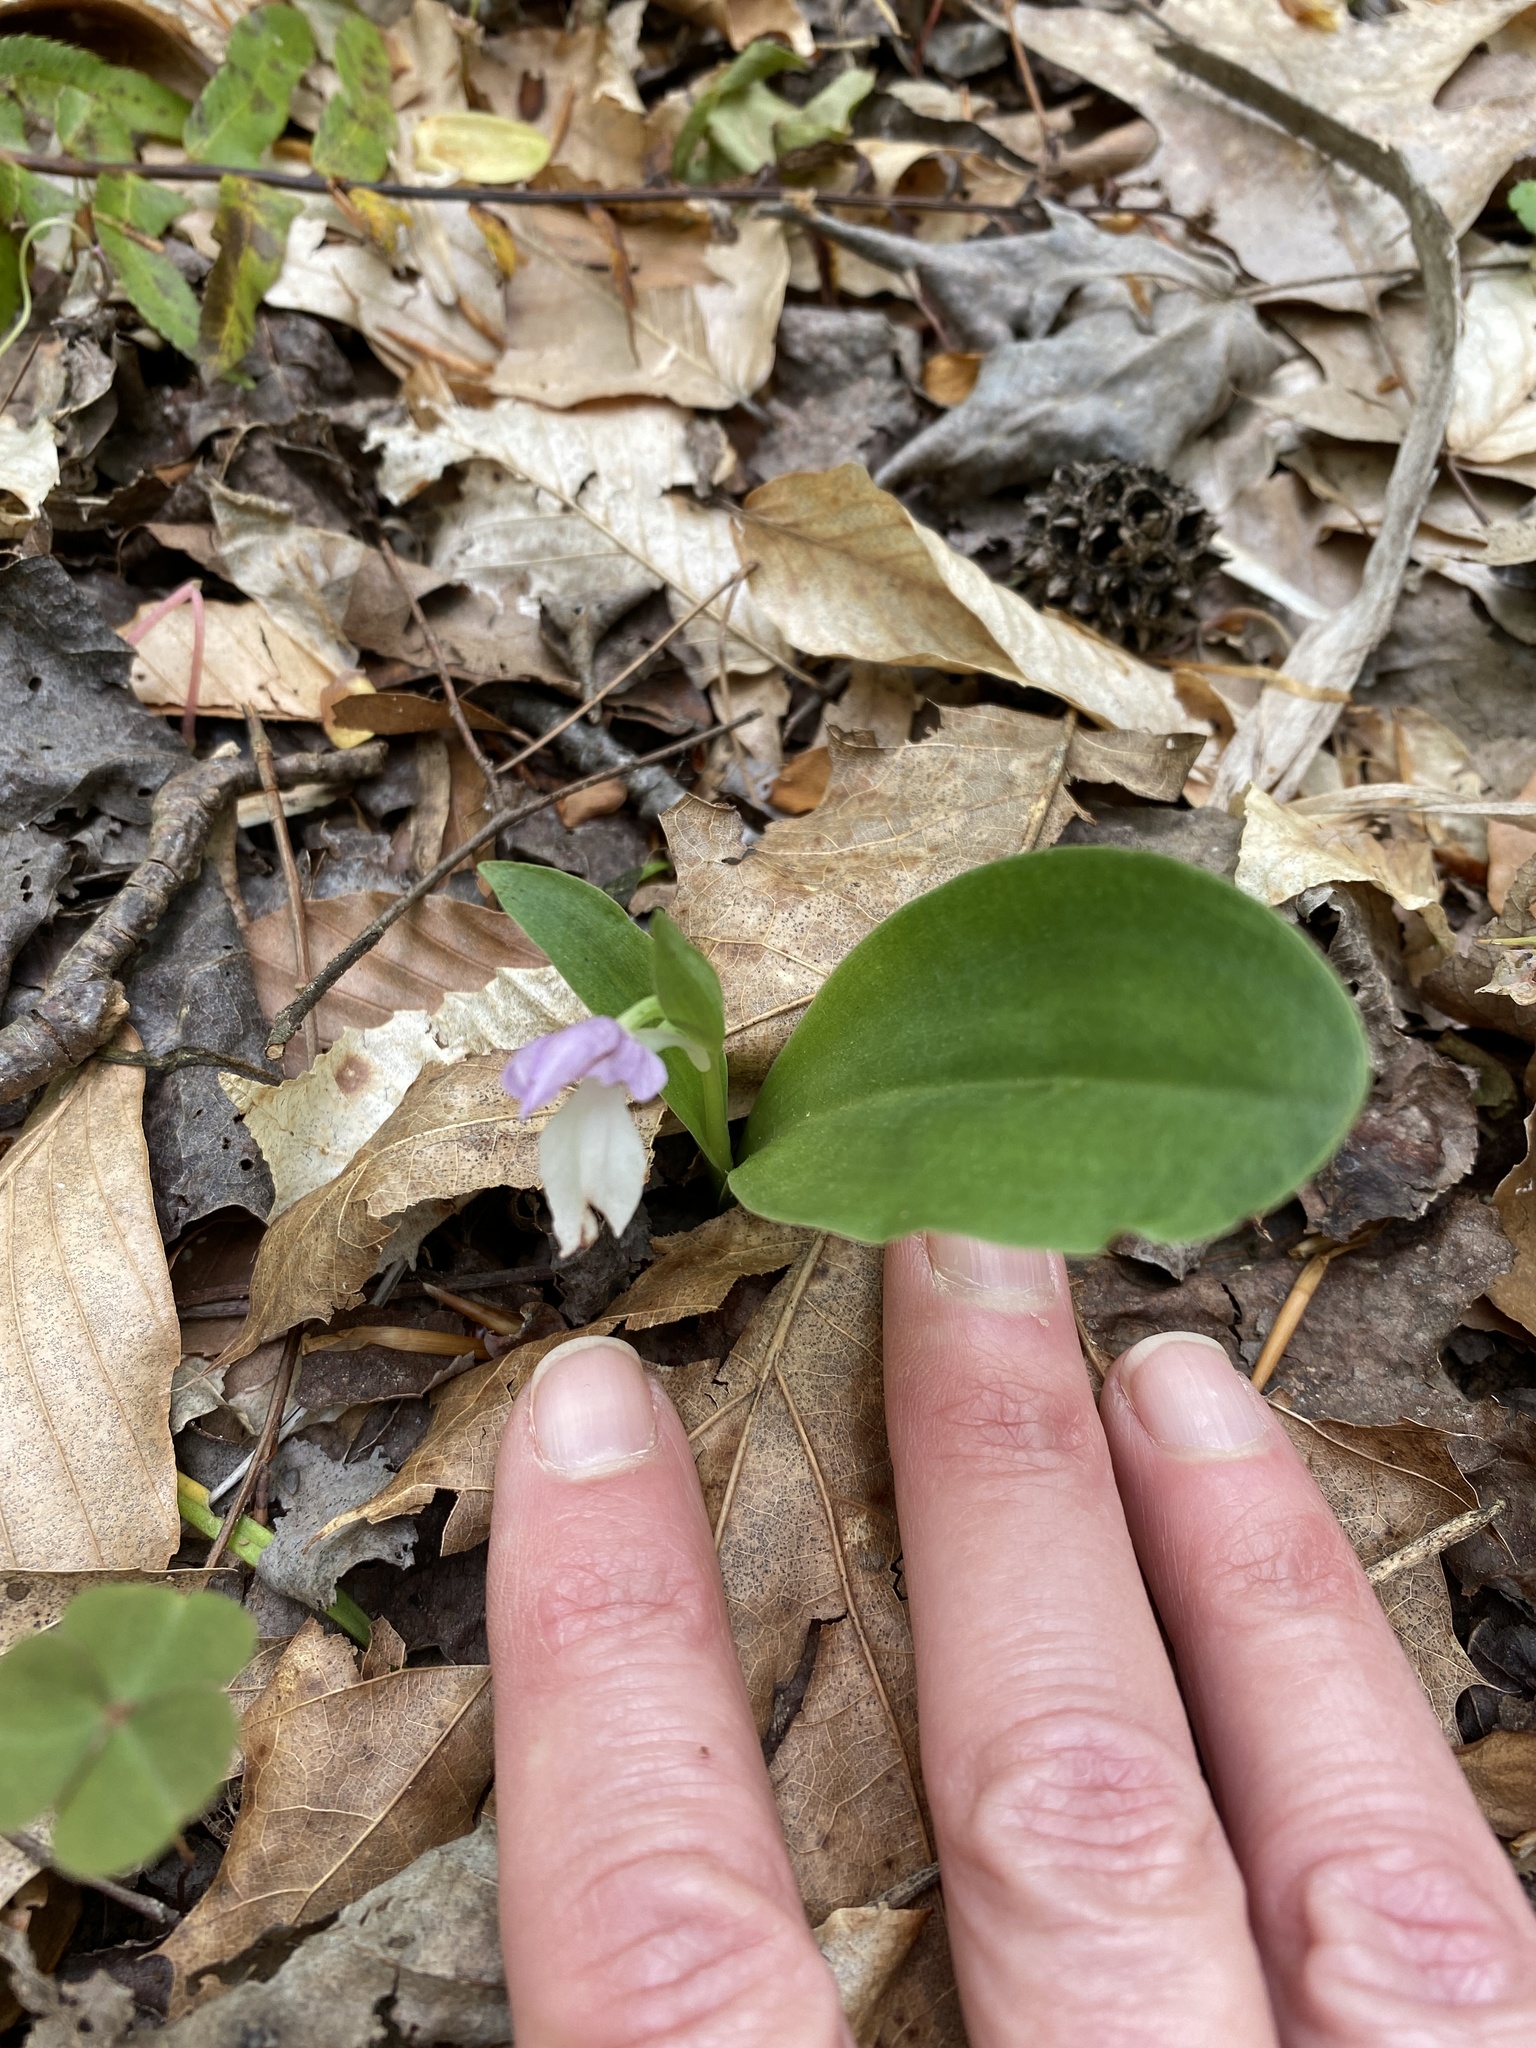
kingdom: Plantae
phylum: Tracheophyta
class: Liliopsida
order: Asparagales
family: Orchidaceae
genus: Galearis
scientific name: Galearis spectabilis
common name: Purple-hooded orchis
